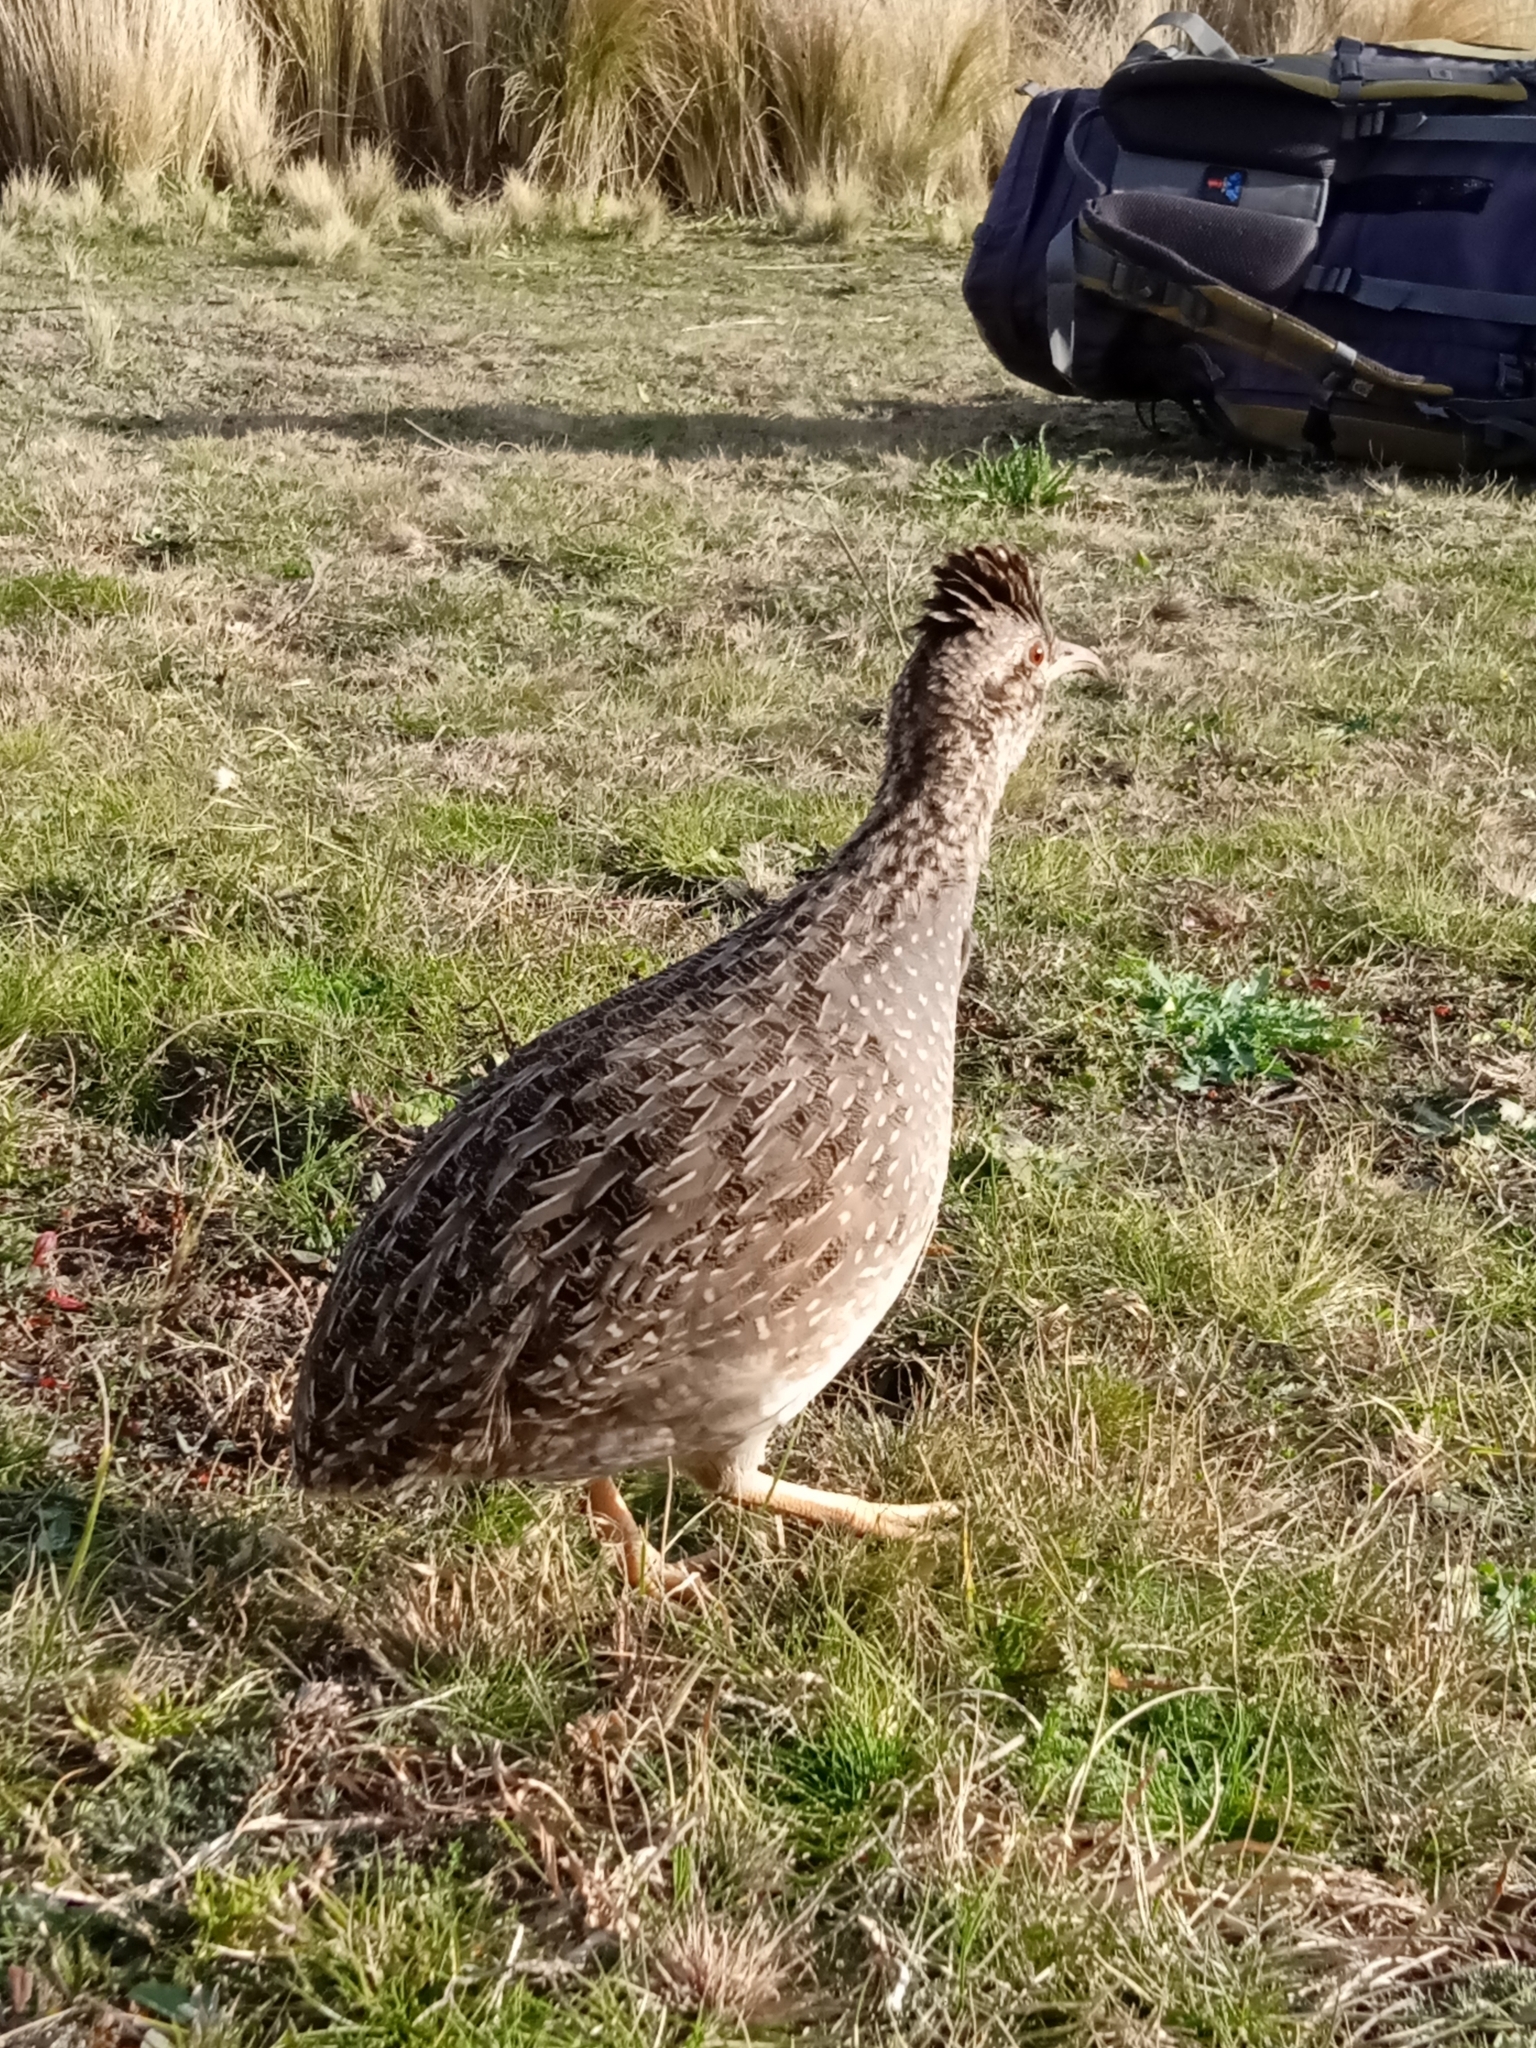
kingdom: Animalia
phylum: Chordata
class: Aves
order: Tinamiformes
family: Tinamidae
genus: Nothoprocta
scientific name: Nothoprocta pentlandii
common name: Andean tinamou
